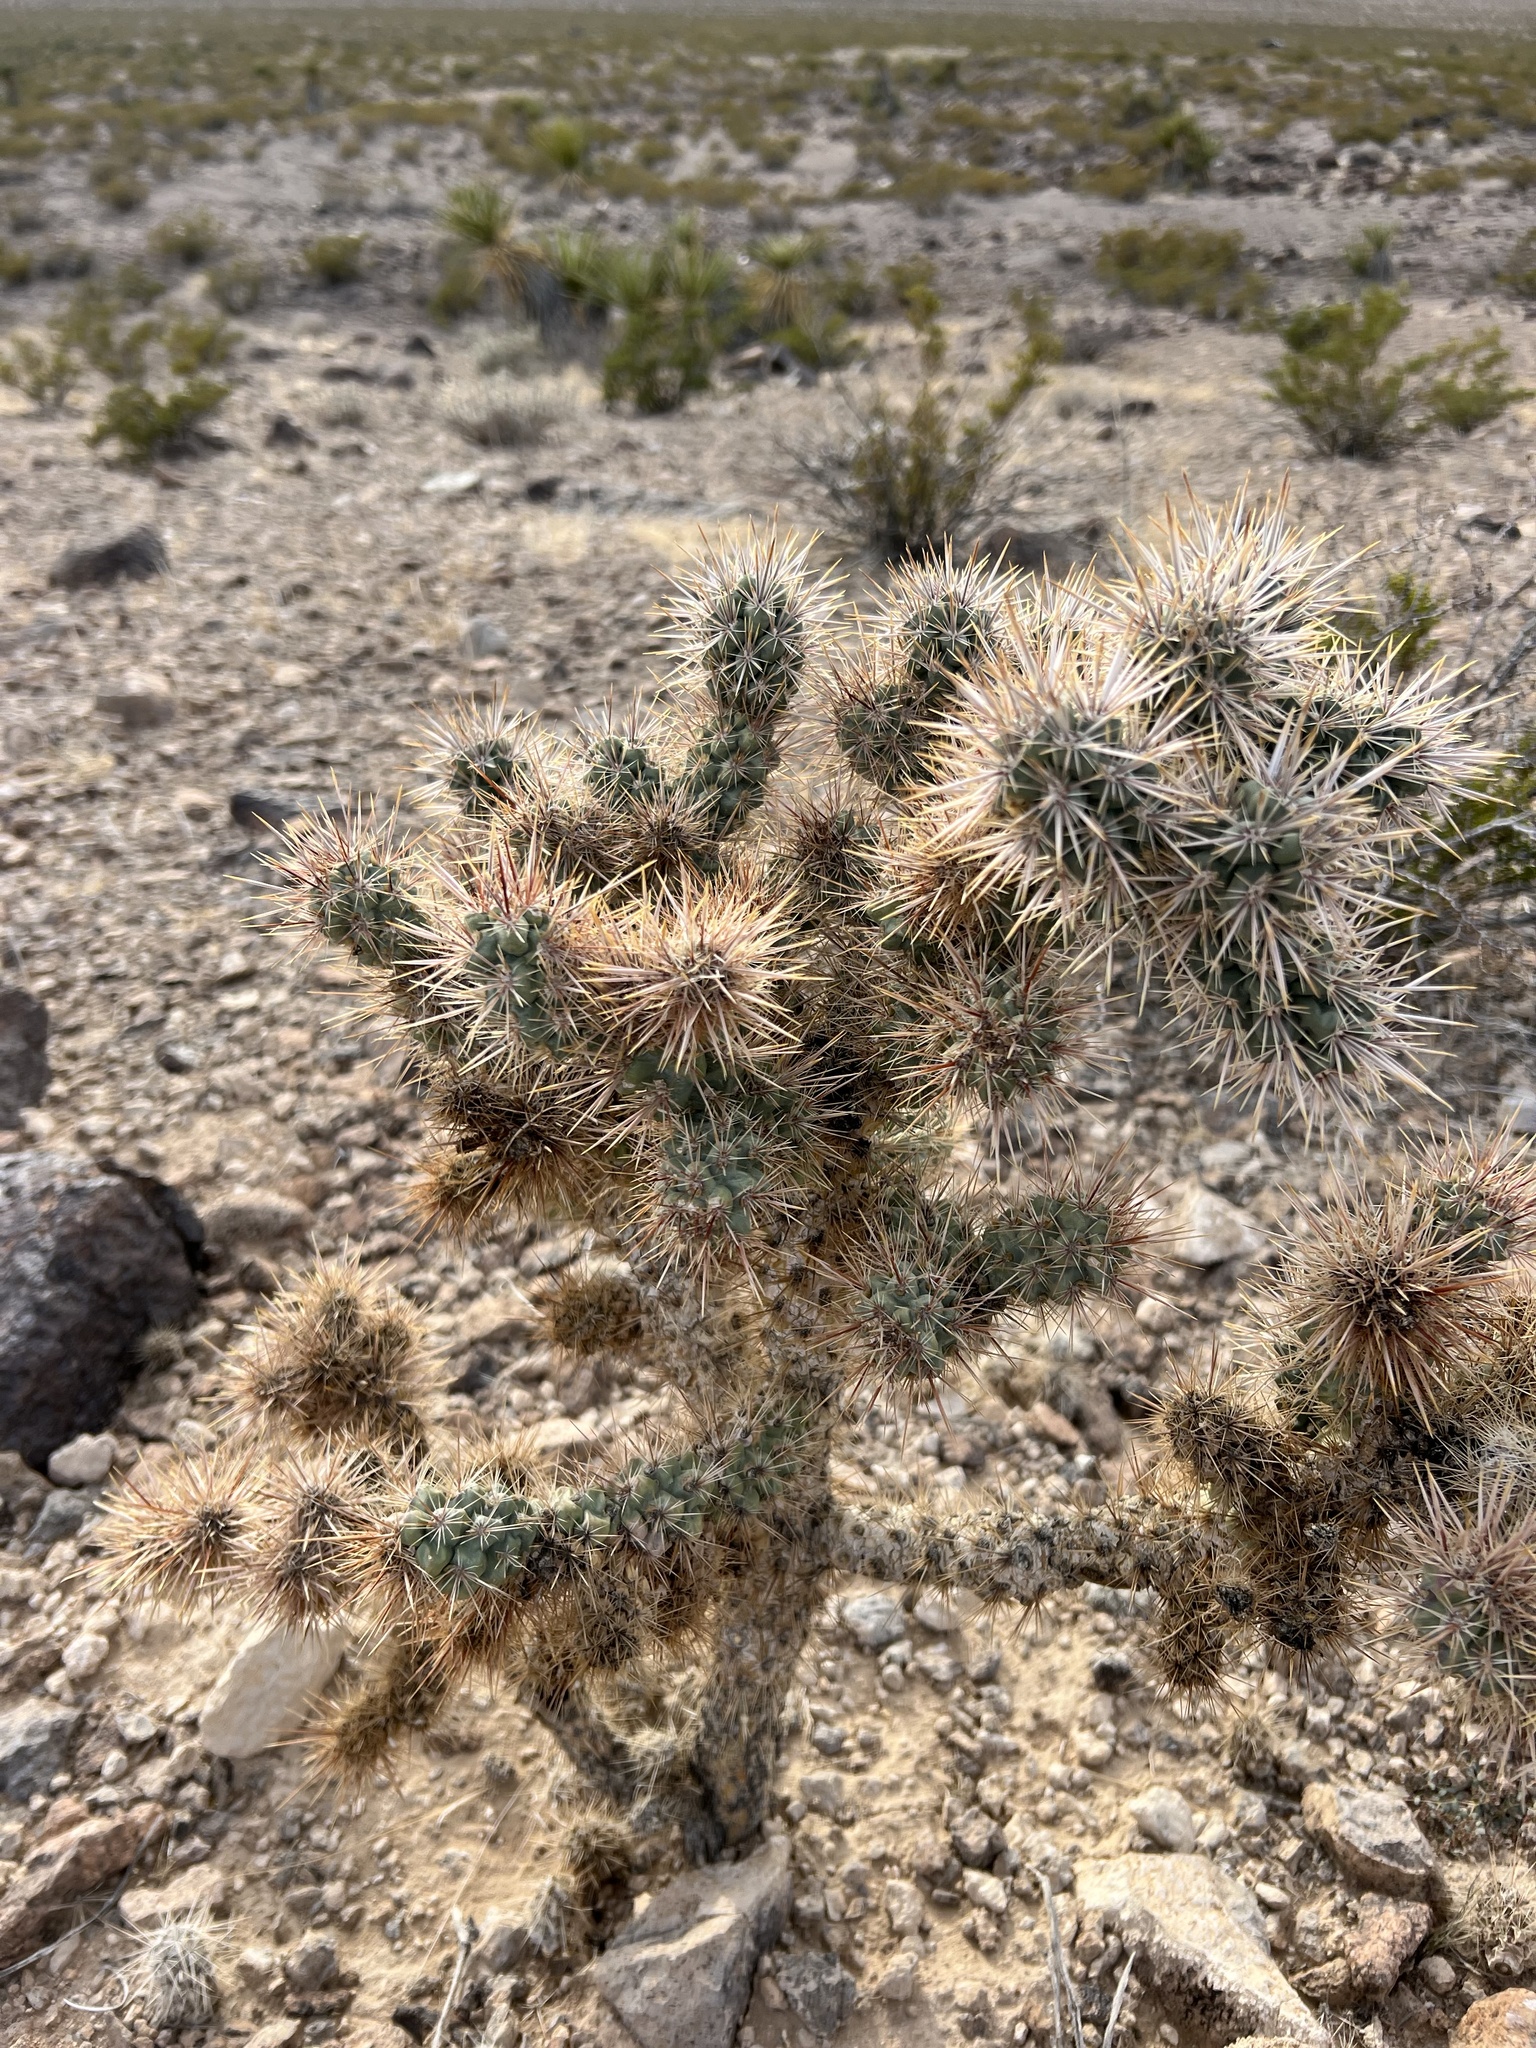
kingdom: Plantae
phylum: Tracheophyta
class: Magnoliopsida
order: Caryophyllales
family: Cactaceae
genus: Cylindropuntia
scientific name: Cylindropuntia echinocarpa
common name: Ground cholla
